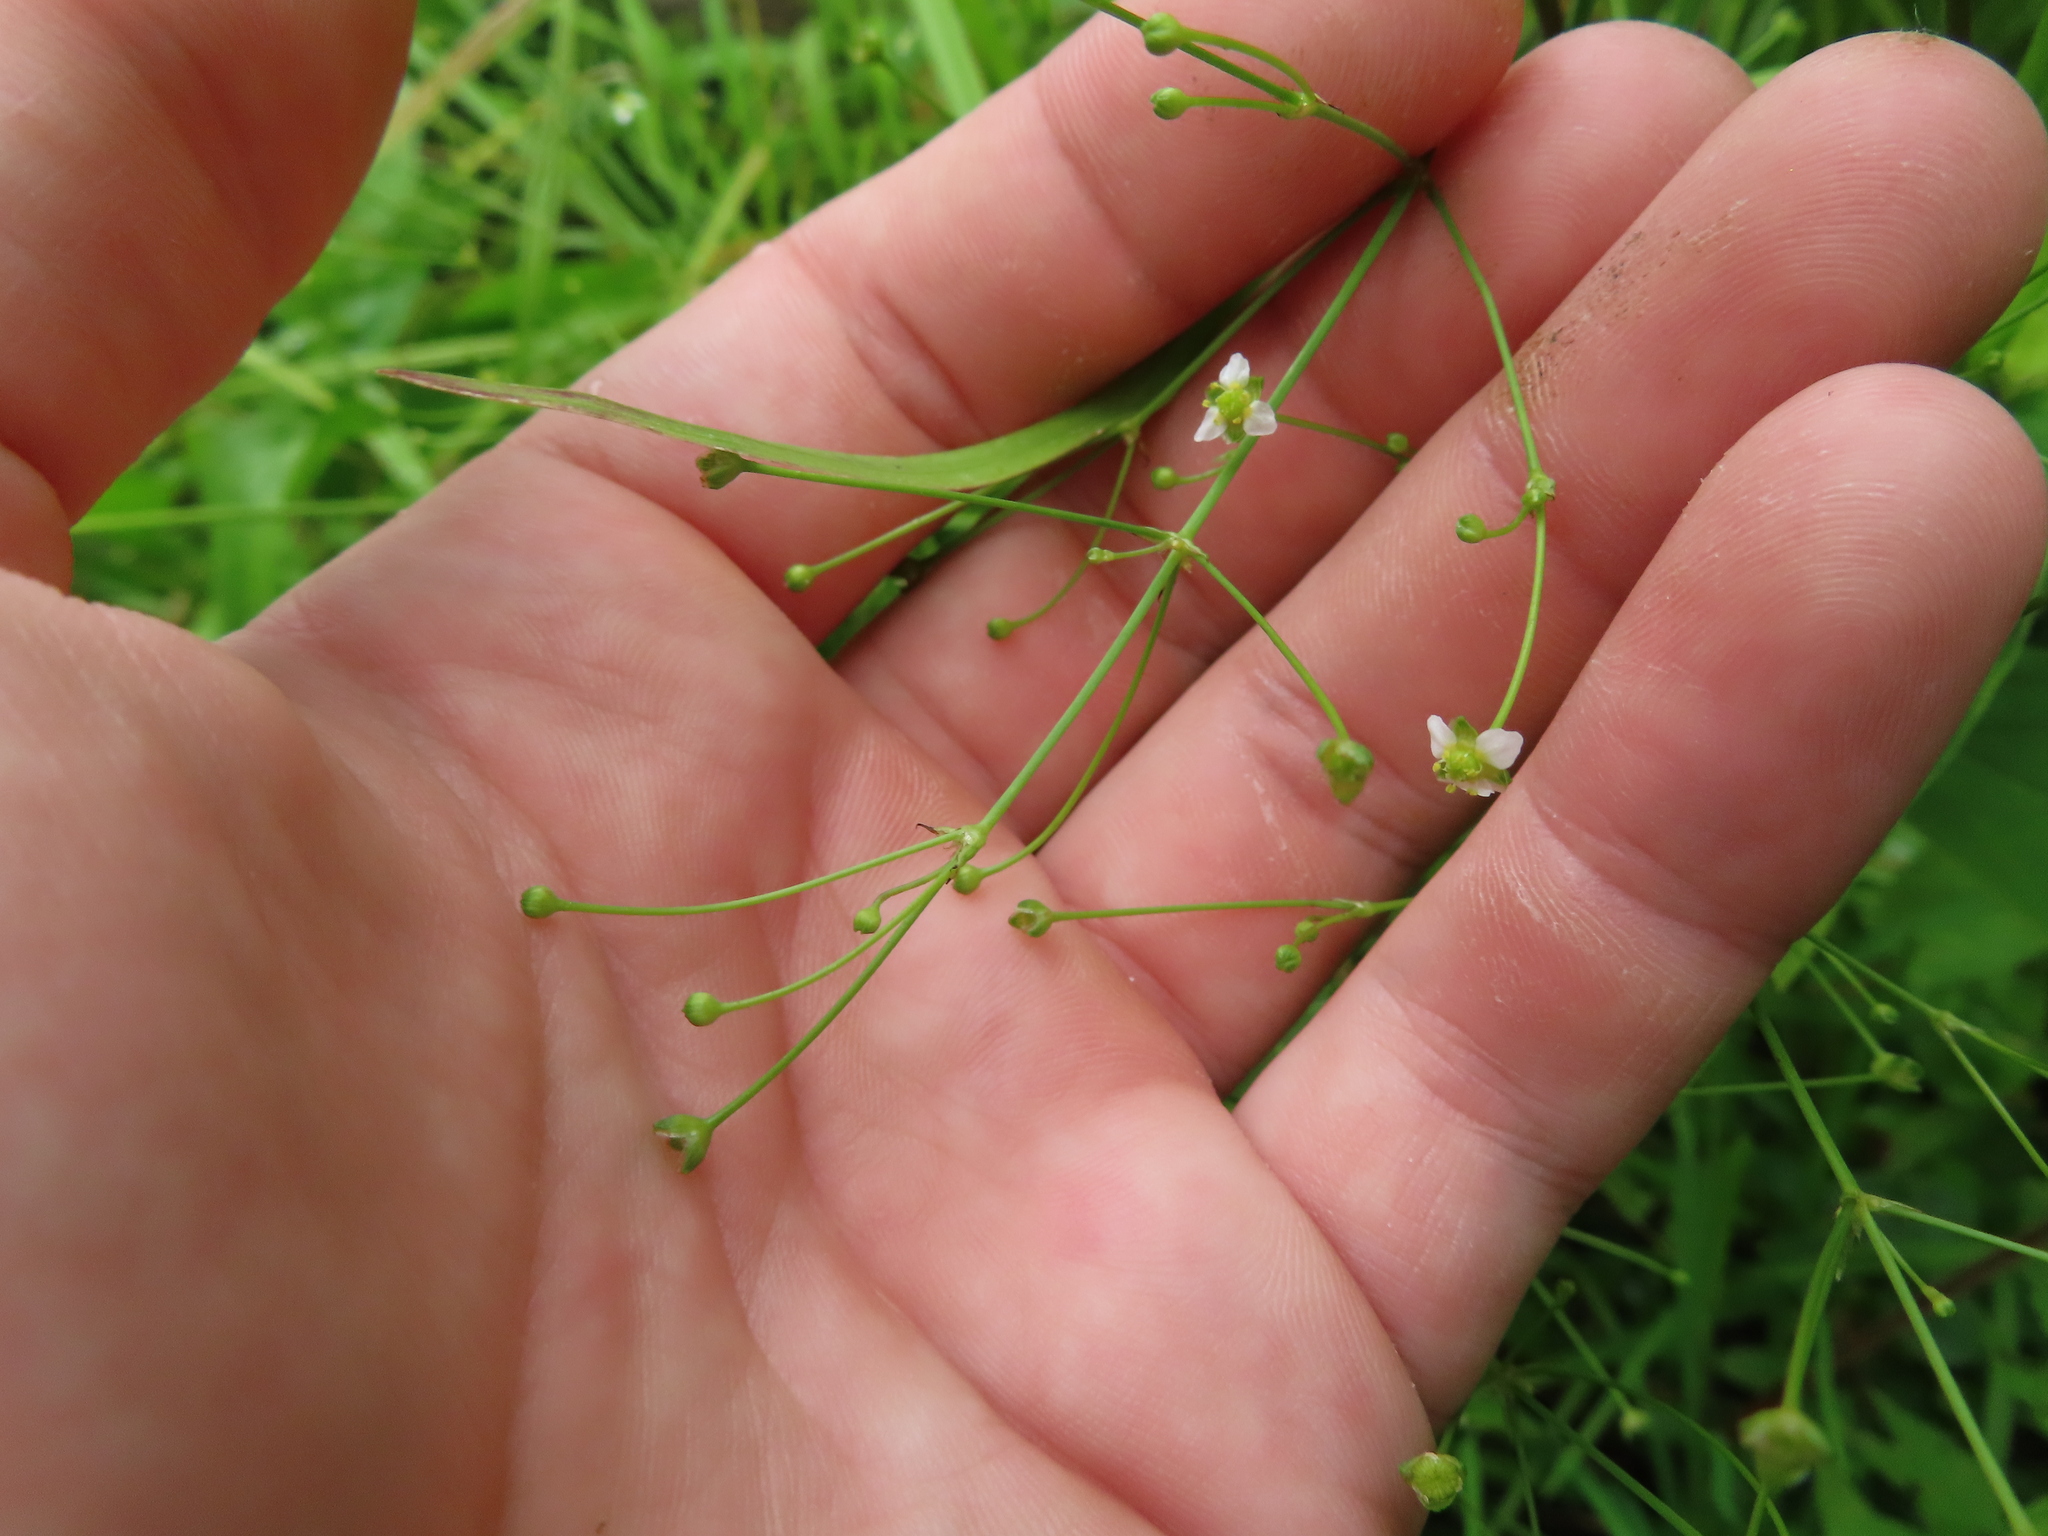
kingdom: Plantae
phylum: Tracheophyta
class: Liliopsida
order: Alismatales
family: Alismataceae
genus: Alisma
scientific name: Alisma subcordatum
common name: Southern water-plantain
